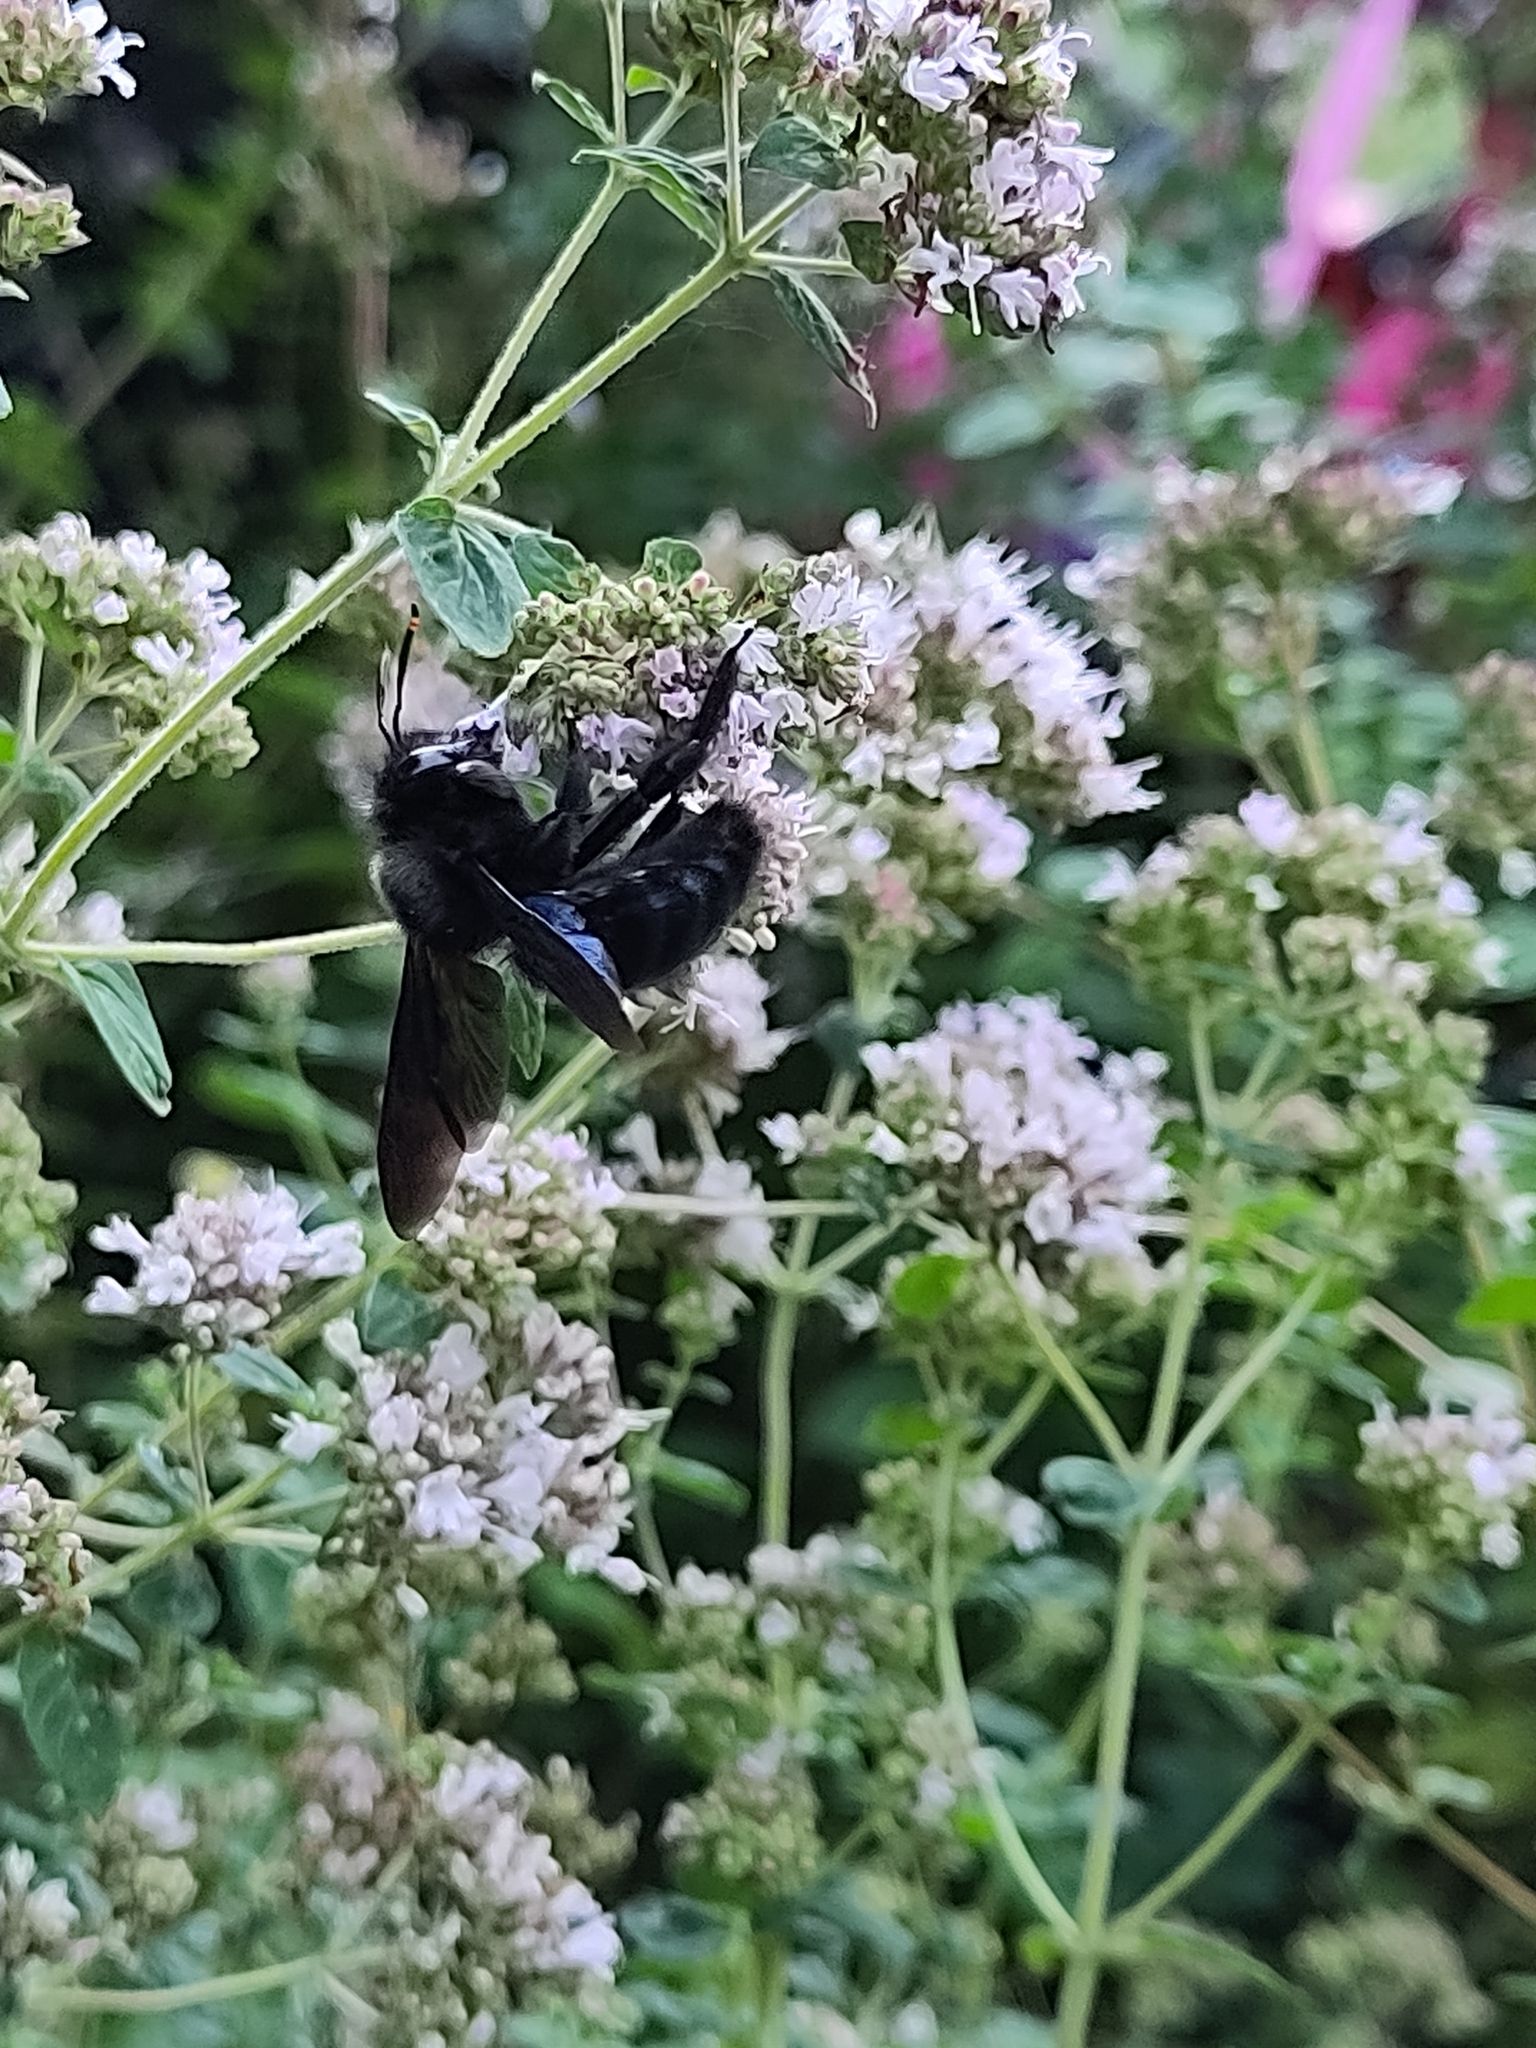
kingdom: Animalia
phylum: Arthropoda
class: Insecta
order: Hymenoptera
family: Apidae
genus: Xylocopa
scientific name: Xylocopa violacea
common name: Violet carpenter bee
